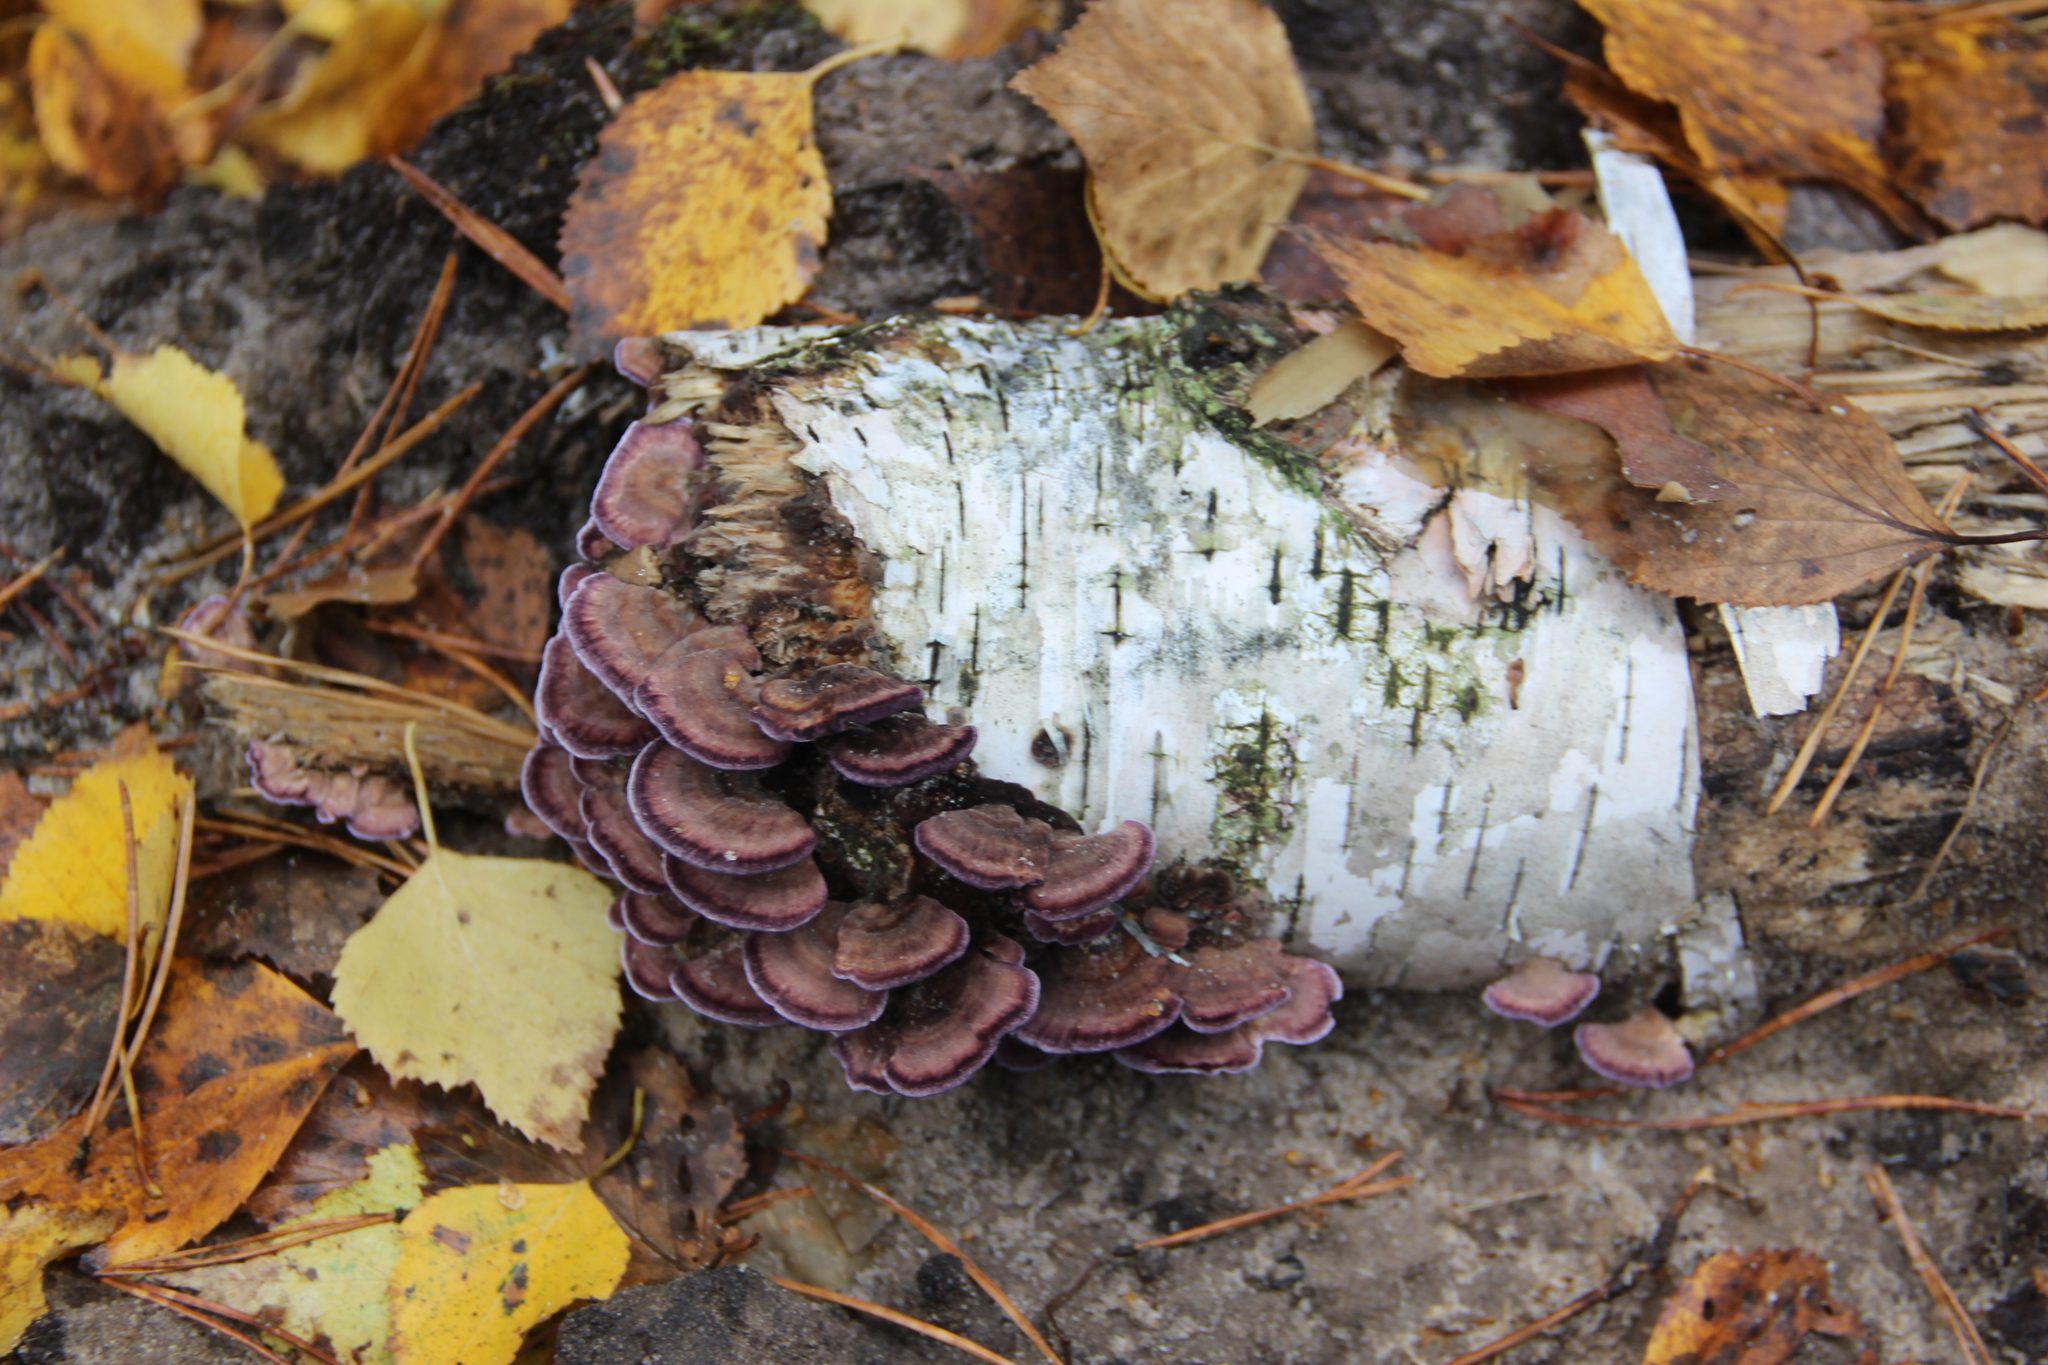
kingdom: Fungi
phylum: Basidiomycota
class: Agaricomycetes
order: Hymenochaetales
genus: Trichaptum
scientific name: Trichaptum biforme
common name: Violet-toothed polypore
